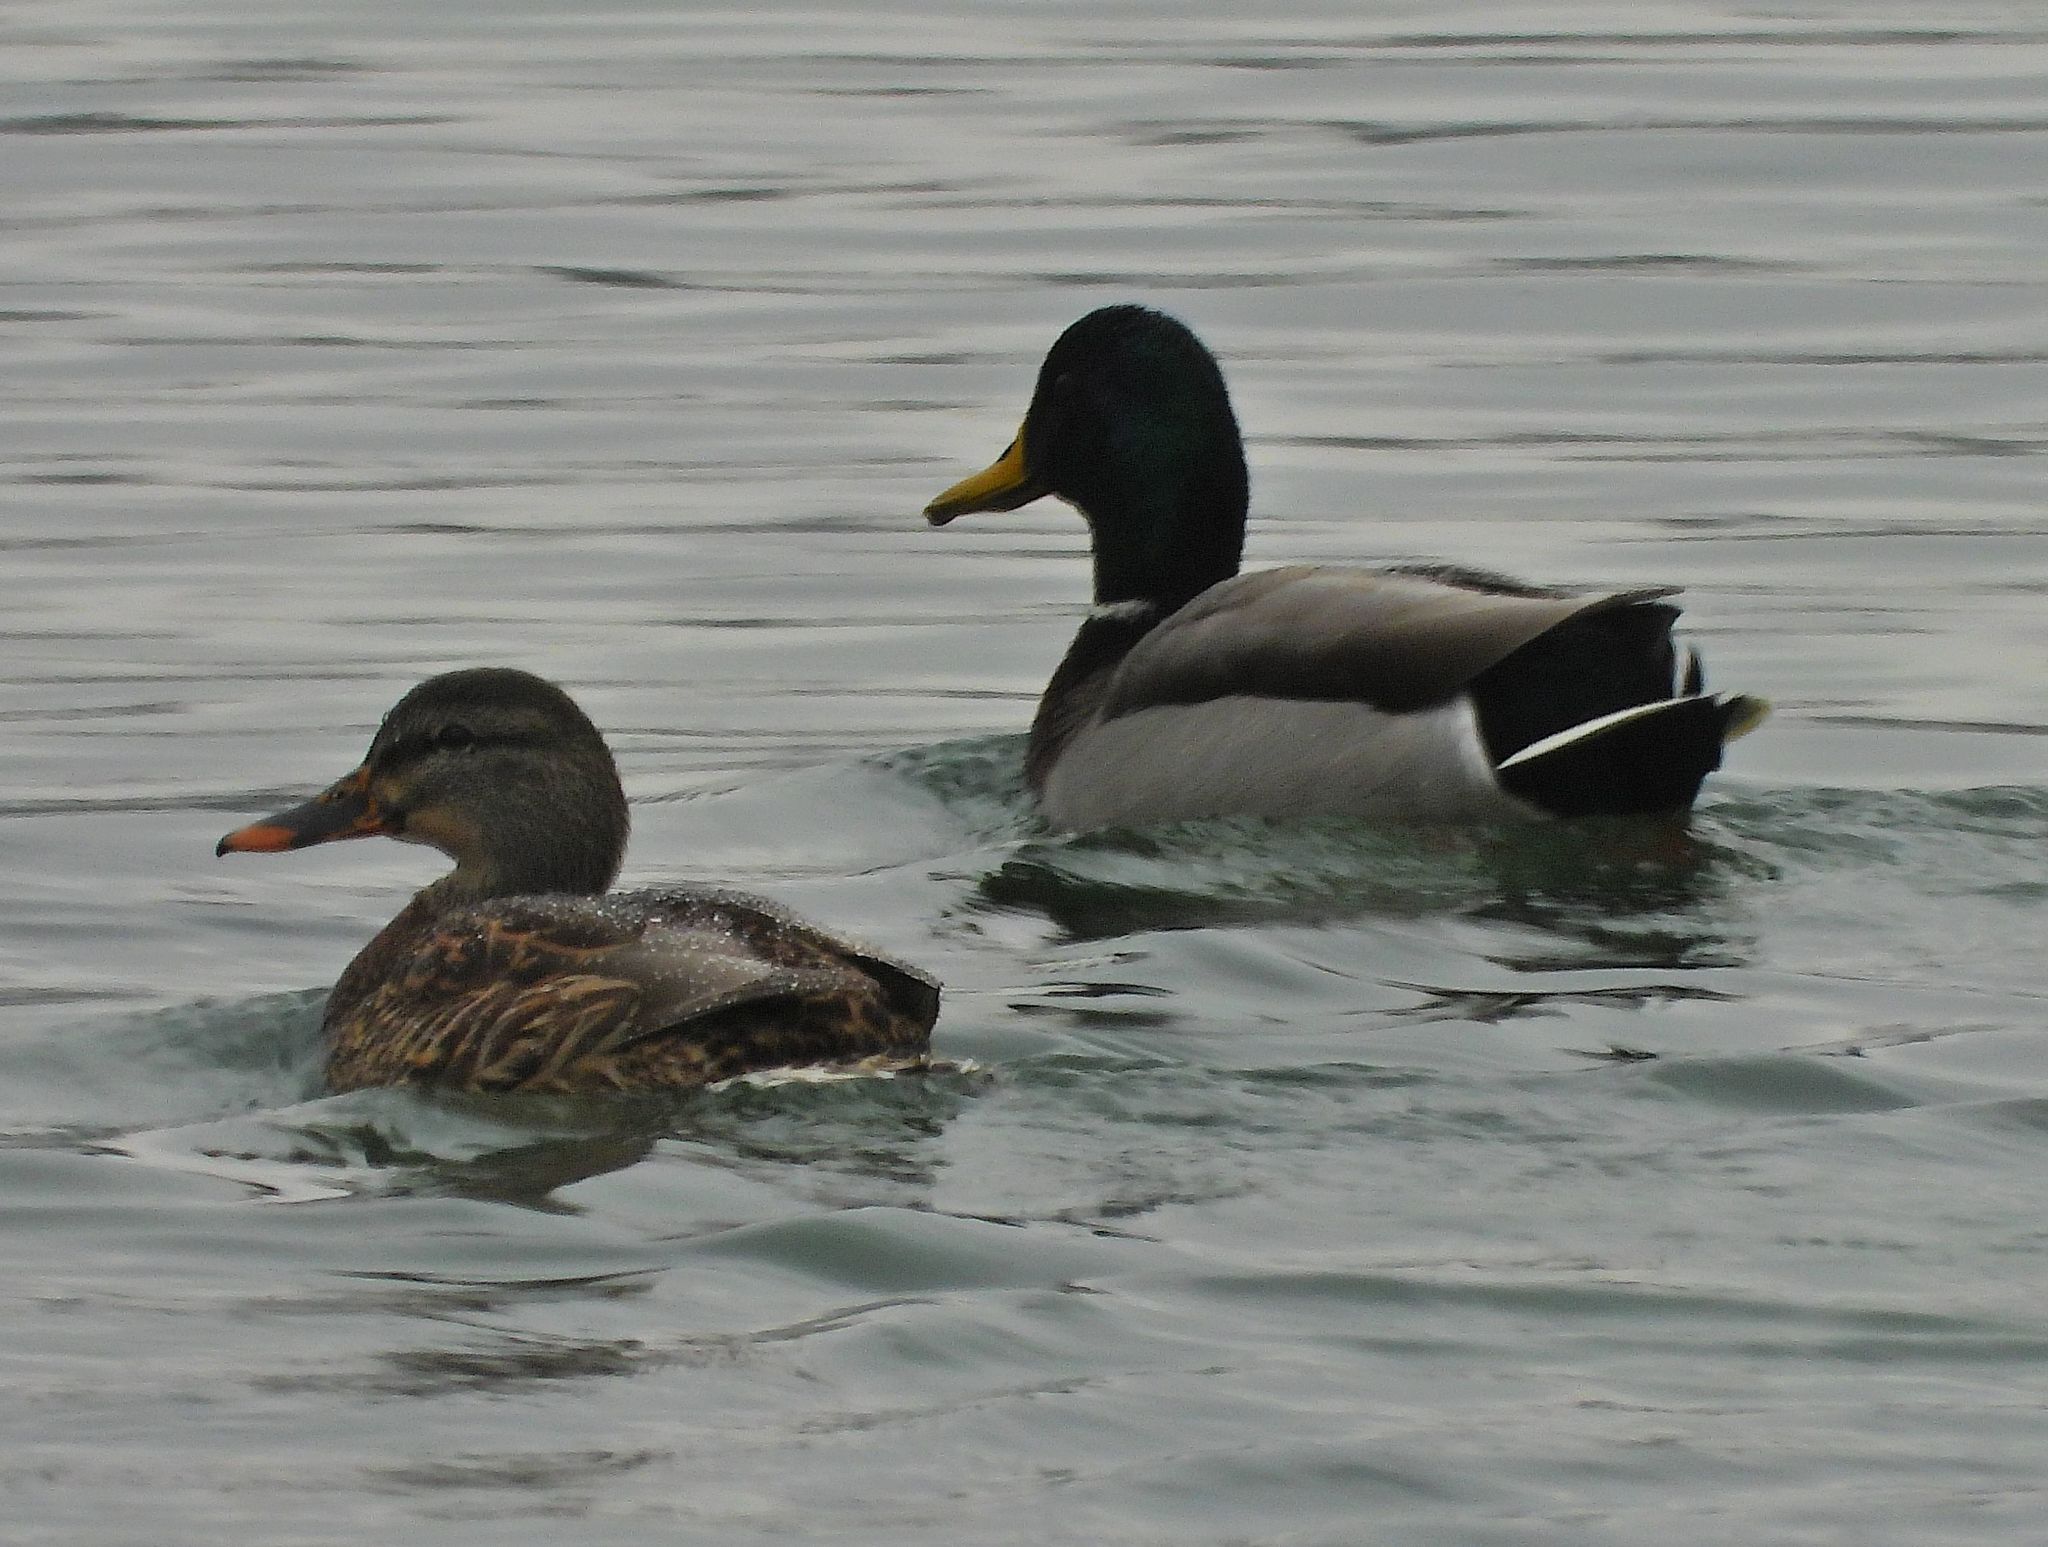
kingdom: Animalia
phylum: Chordata
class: Aves
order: Anseriformes
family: Anatidae
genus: Anas
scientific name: Anas platyrhynchos
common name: Mallard
